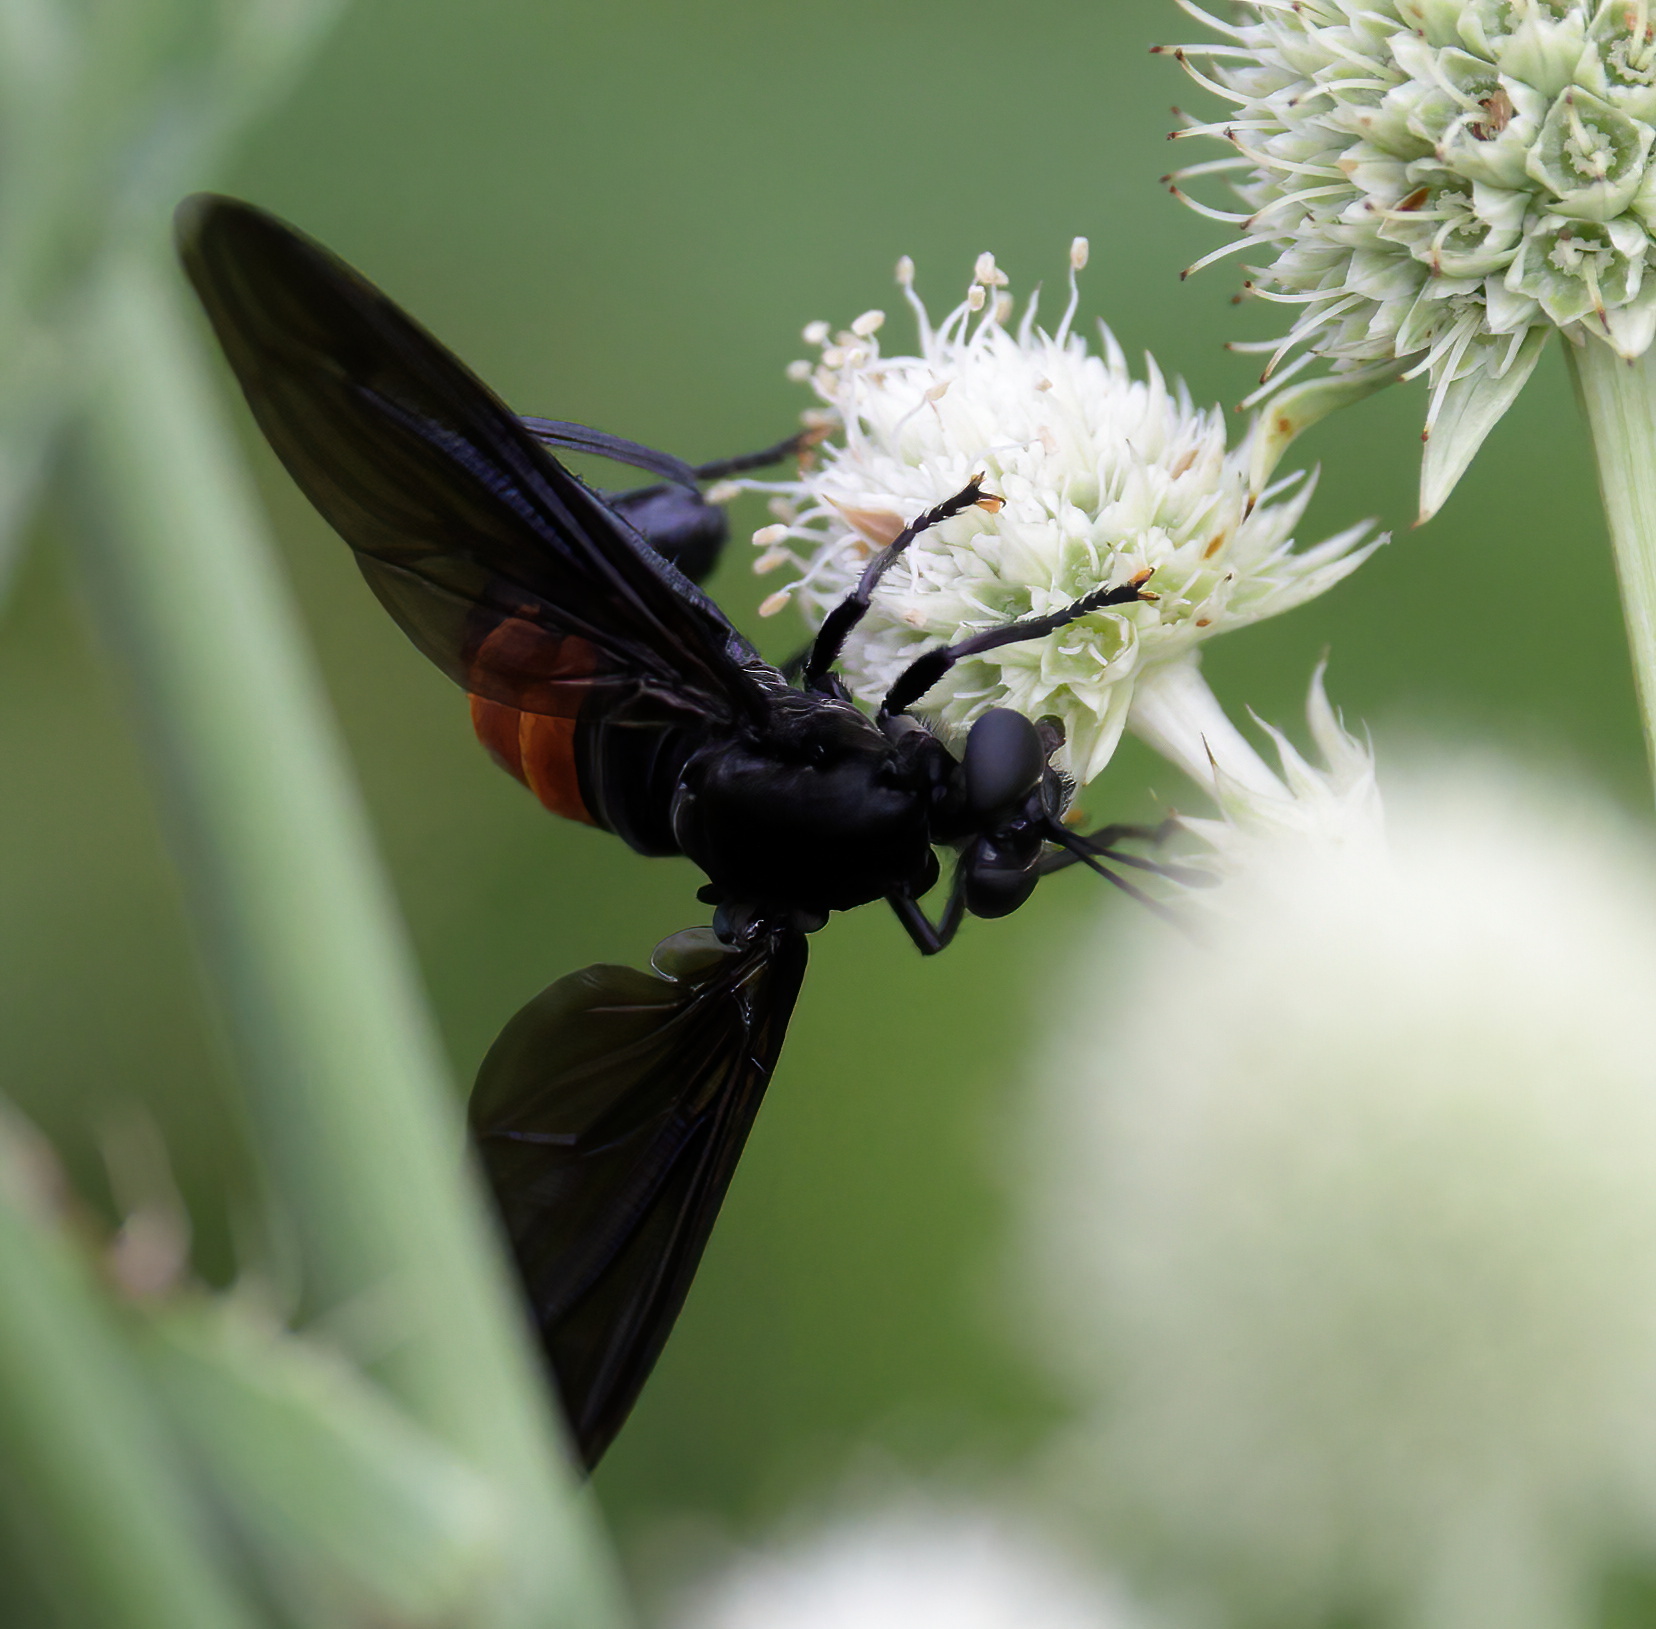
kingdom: Animalia
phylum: Arthropoda
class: Insecta
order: Diptera
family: Mydidae
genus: Mydas
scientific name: Mydas fulvifrons
